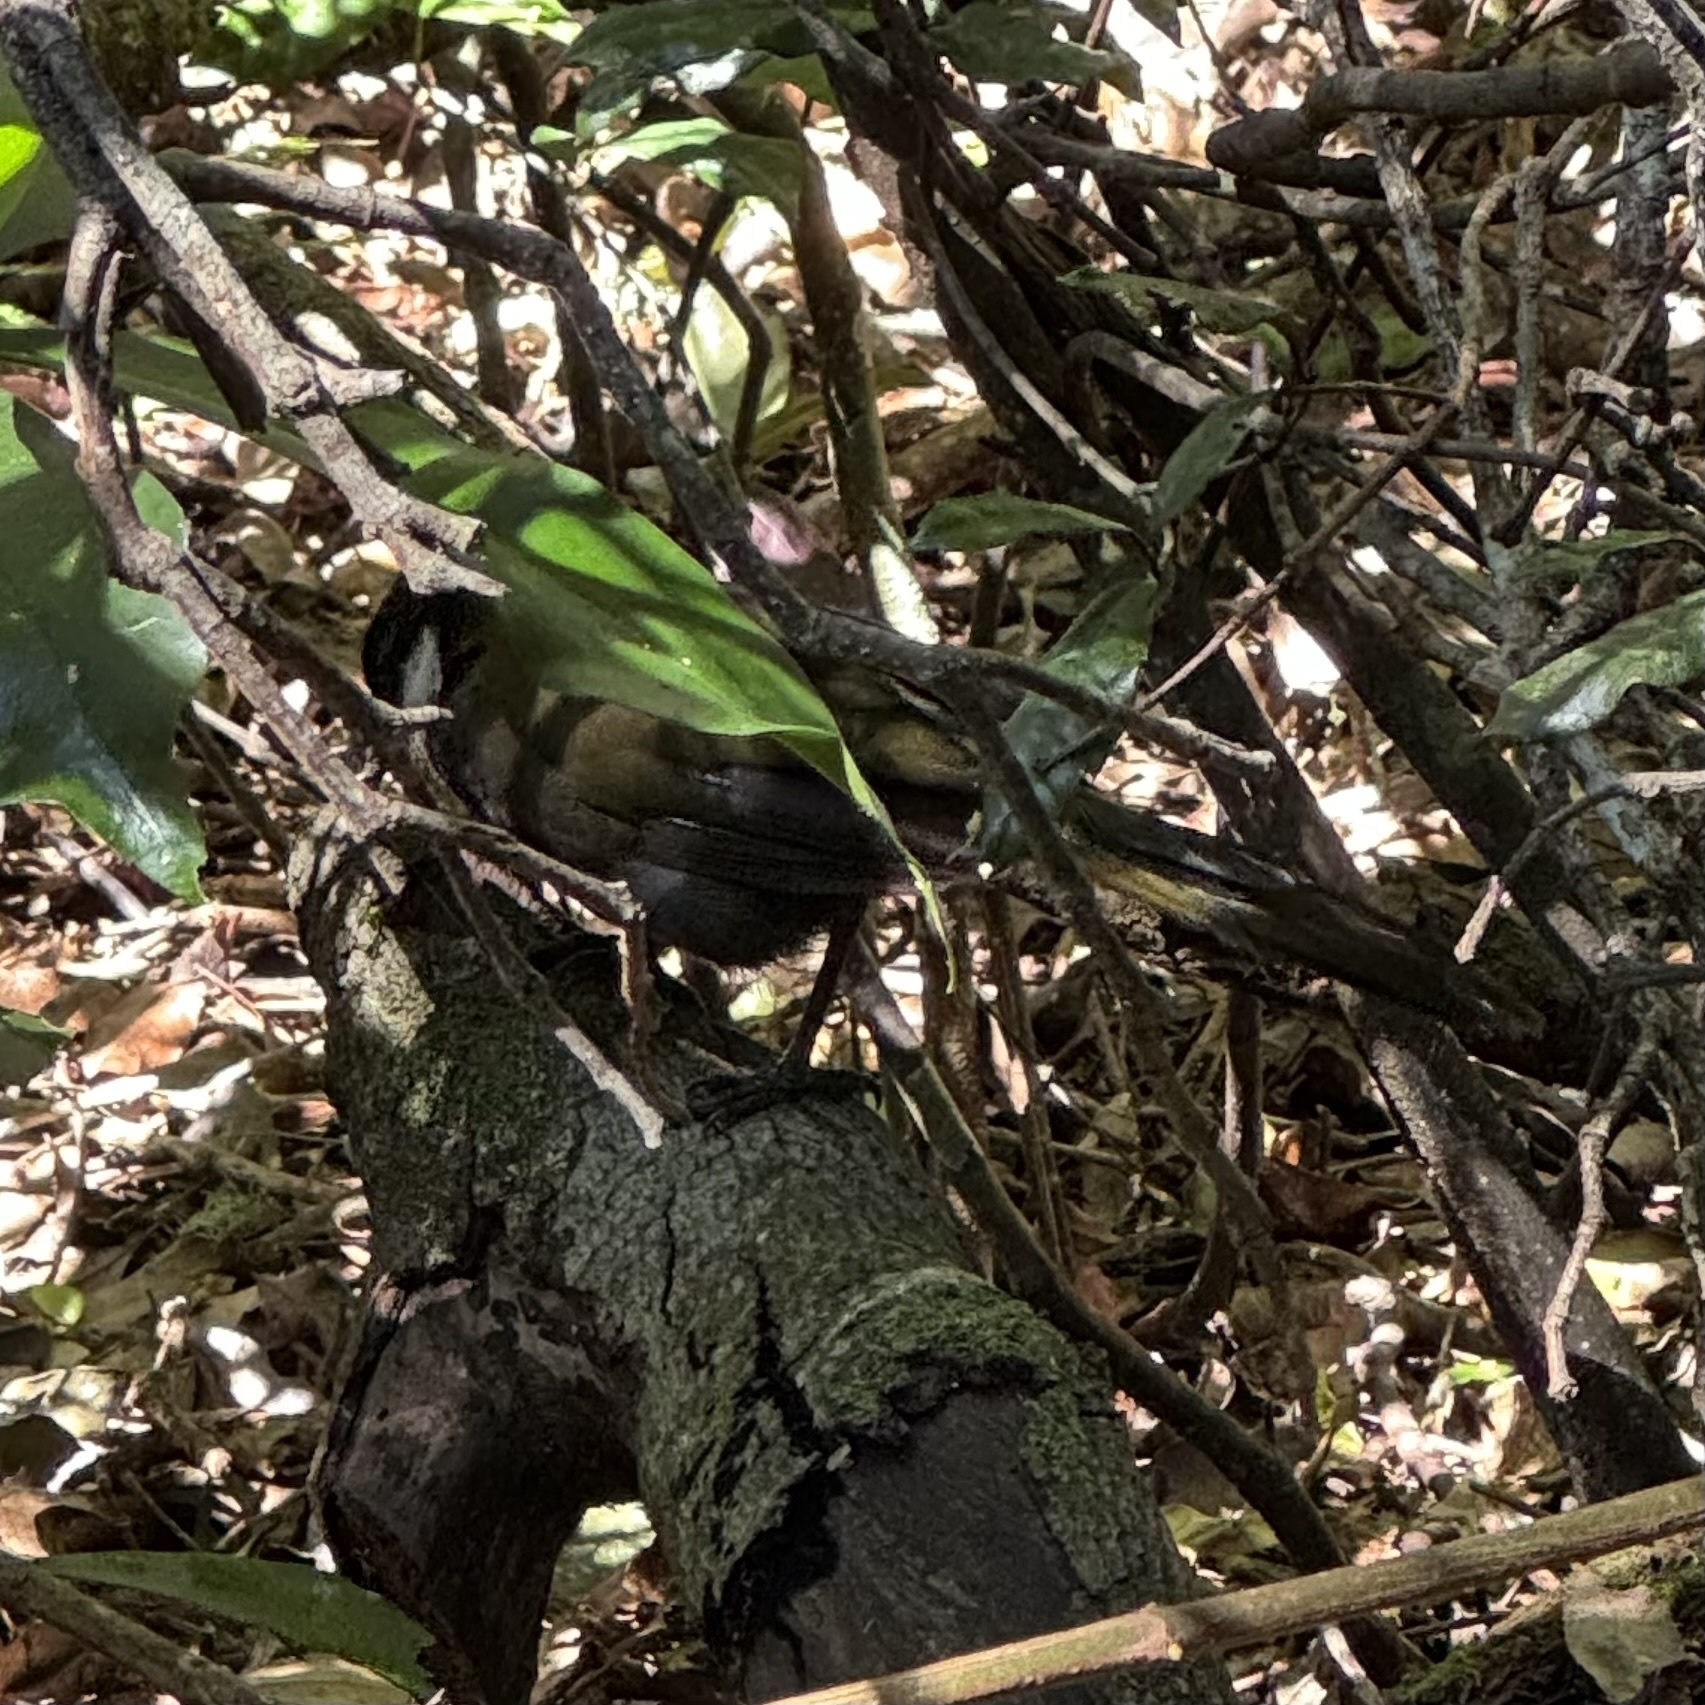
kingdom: Animalia
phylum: Chordata
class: Aves
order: Passeriformes
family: Psophodidae
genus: Psophodes
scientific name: Psophodes olivaceus
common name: Eastern whipbird
